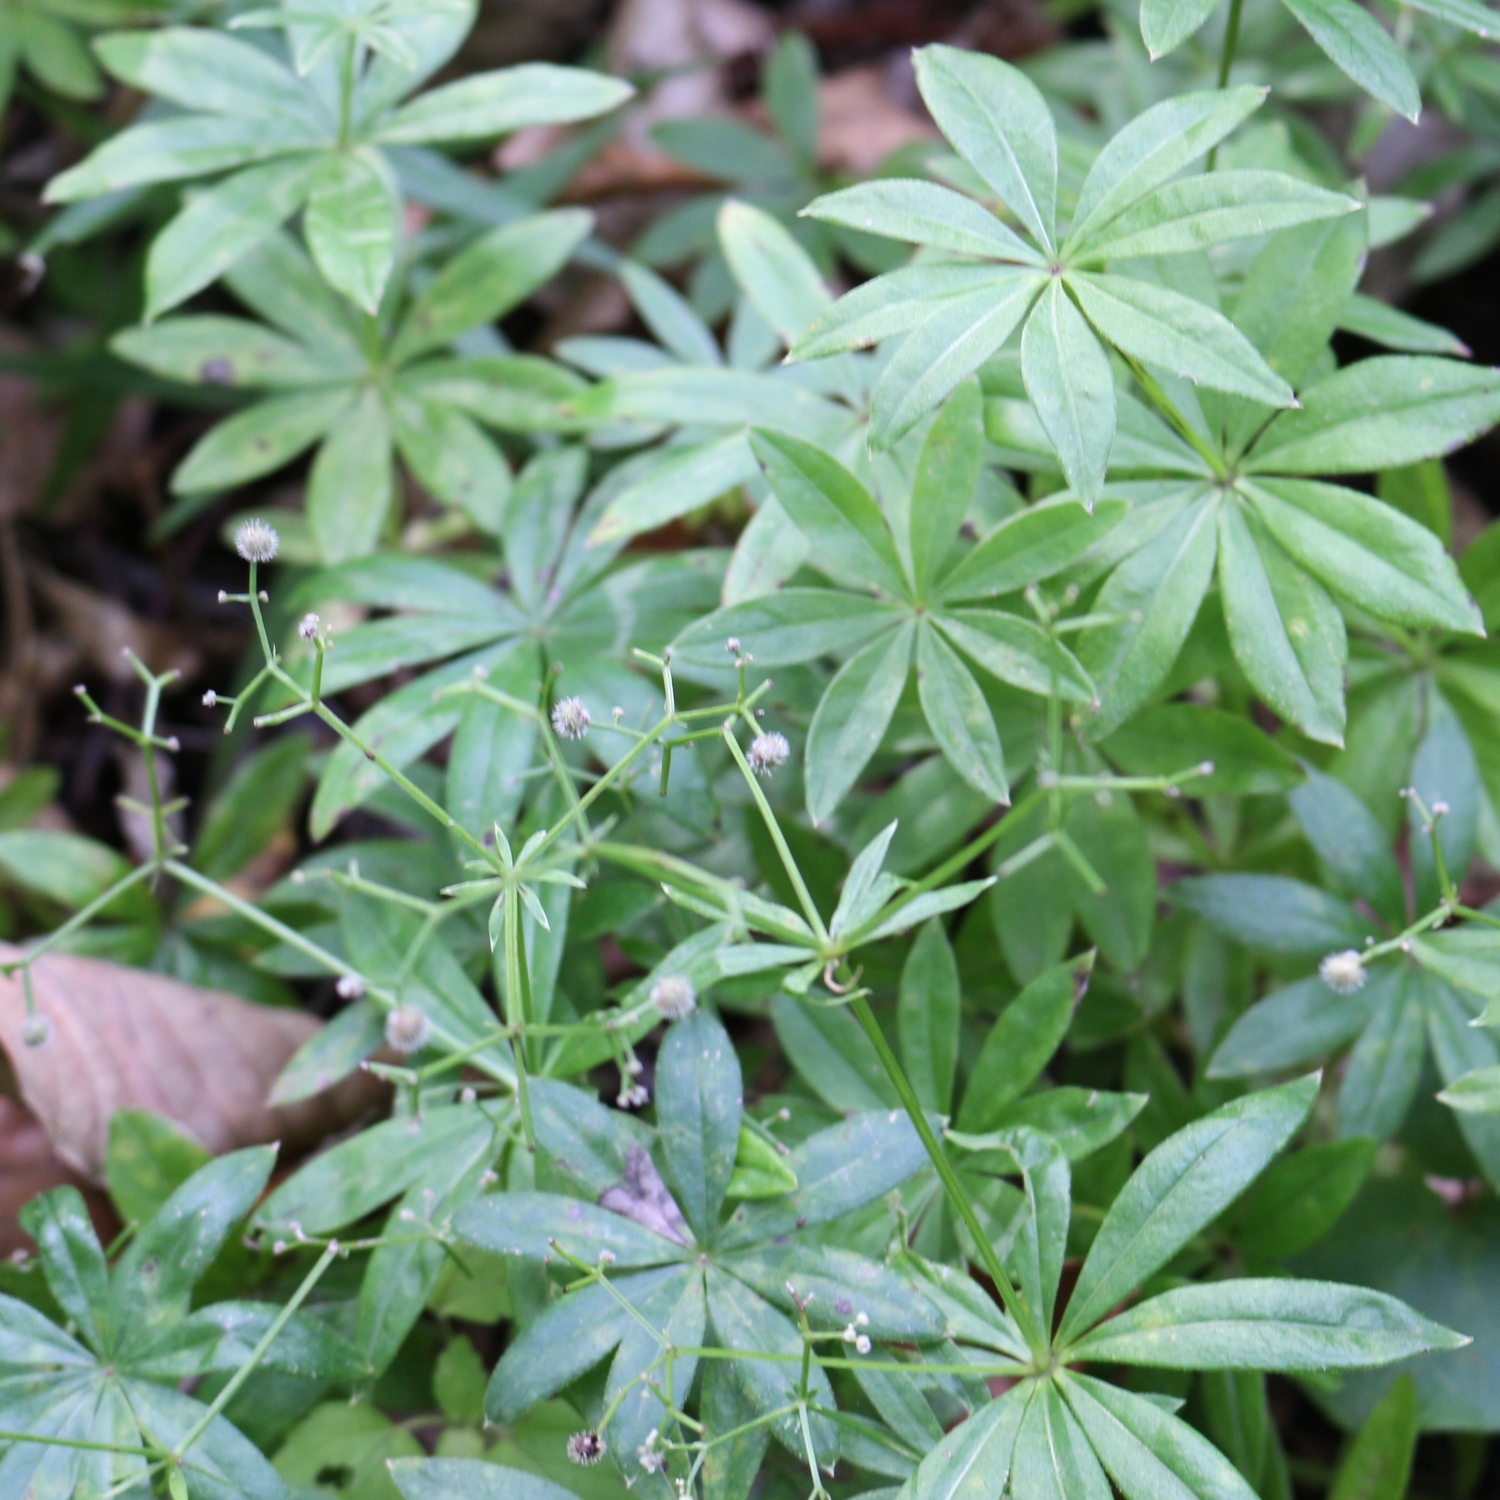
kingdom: Plantae
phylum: Tracheophyta
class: Magnoliopsida
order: Gentianales
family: Rubiaceae
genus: Galium
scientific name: Galium odoratum
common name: Sweet woodruff
